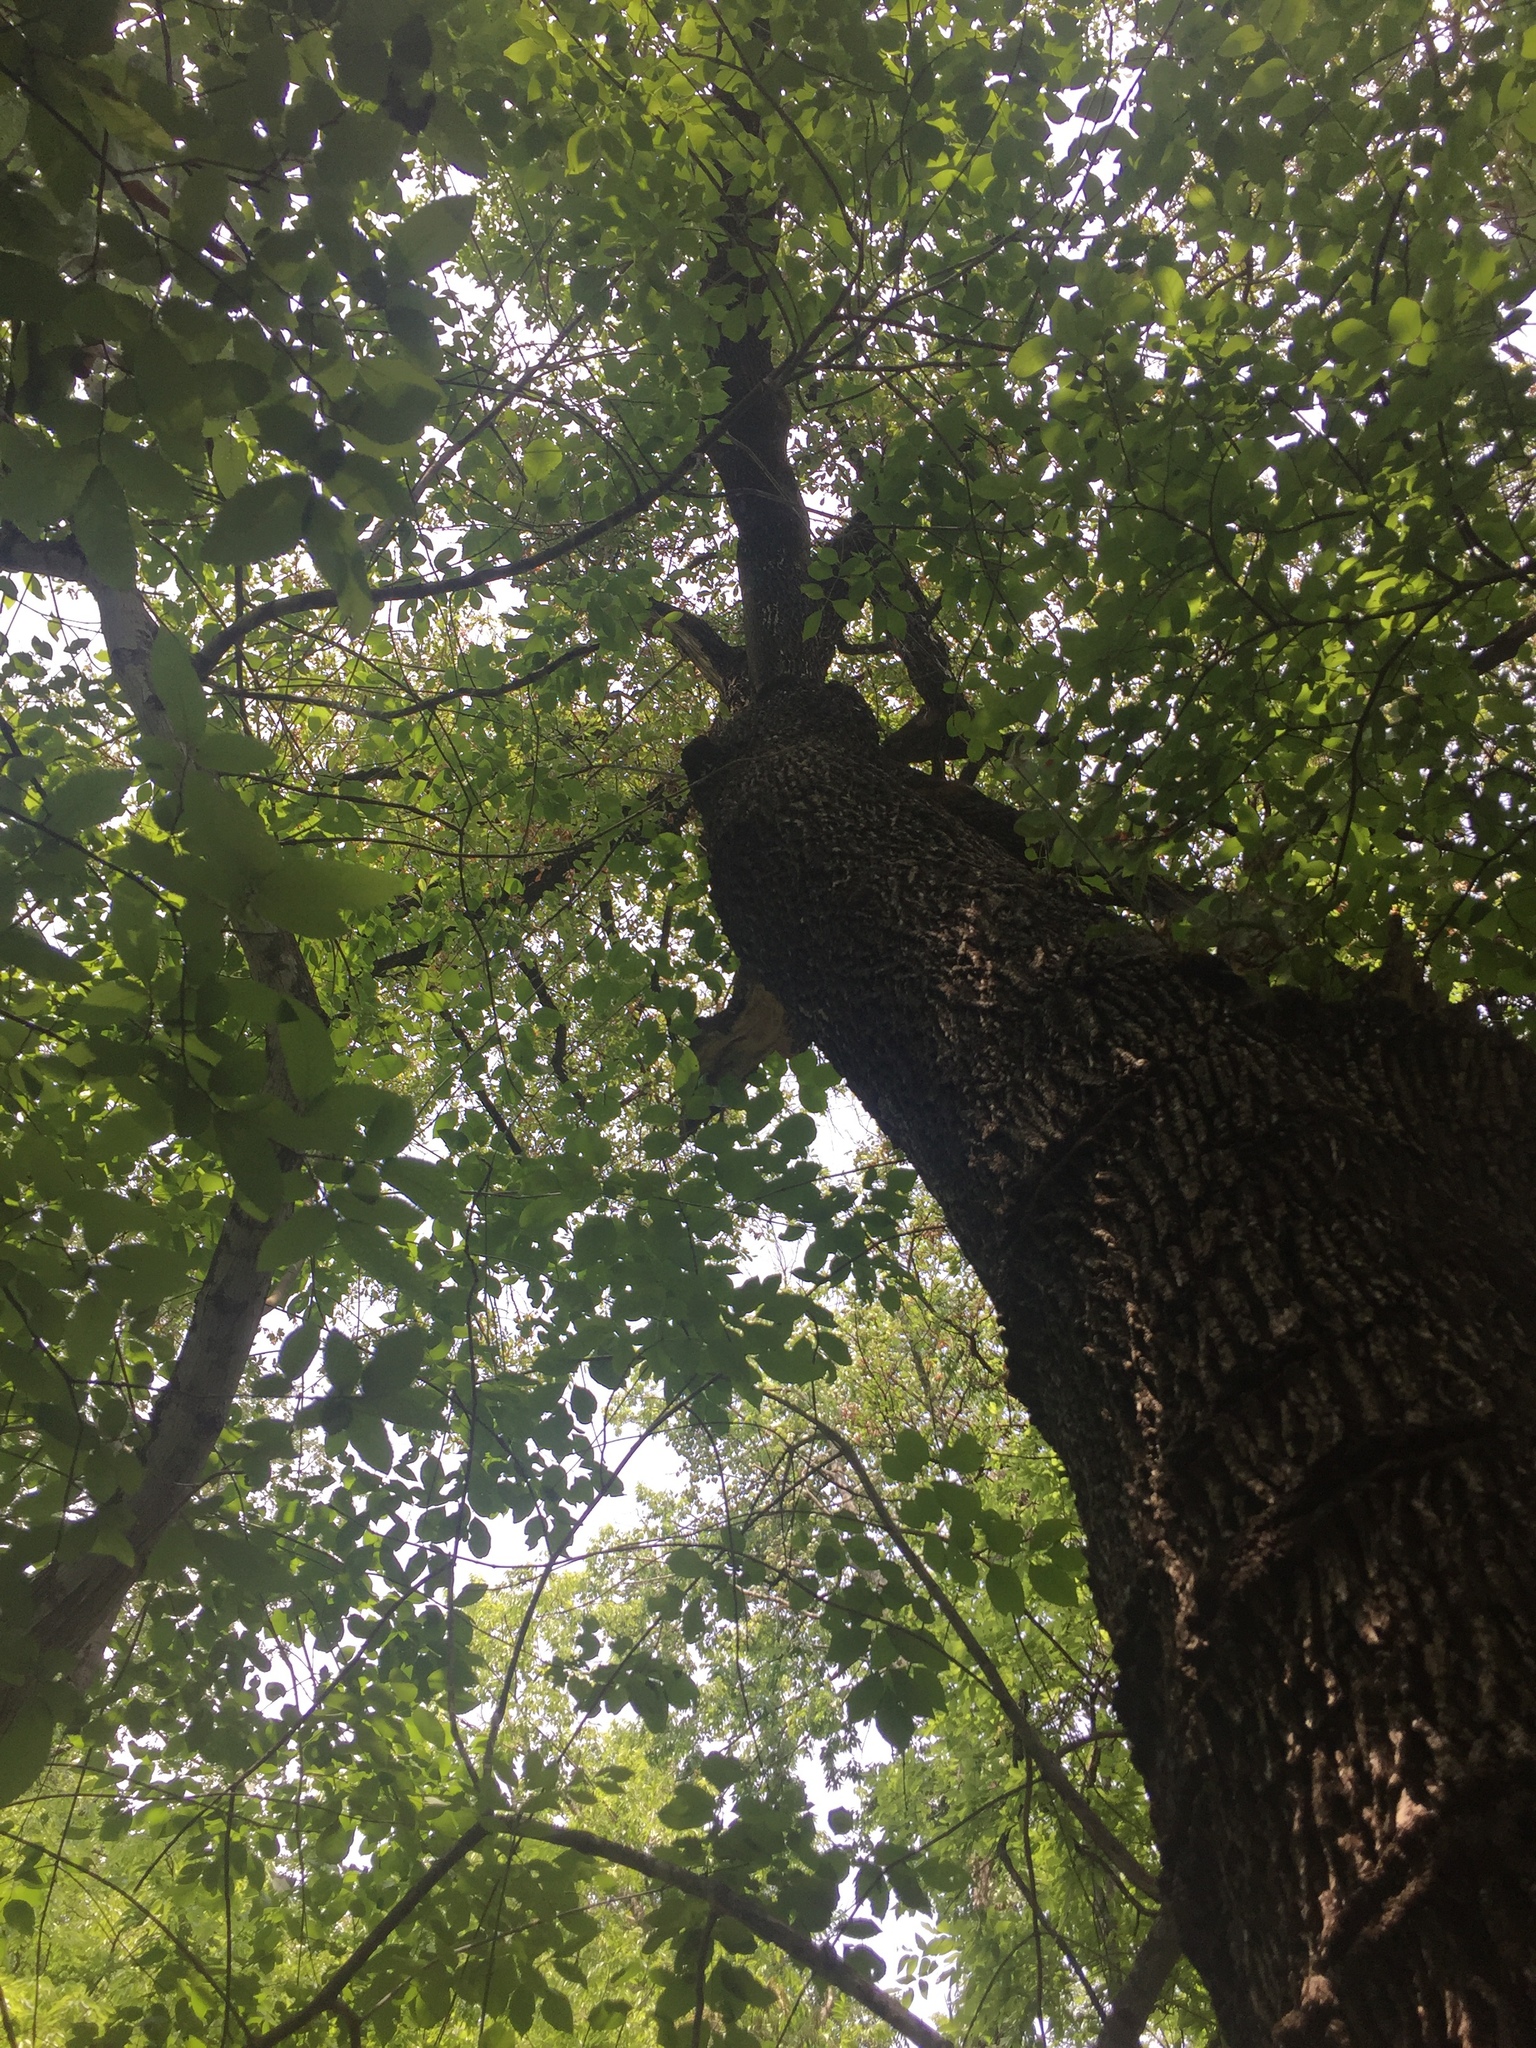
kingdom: Plantae
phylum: Tracheophyta
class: Magnoliopsida
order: Ericales
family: Sapotaceae
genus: Sideroxylon
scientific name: Sideroxylon lanuginosum
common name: Chittamwood
